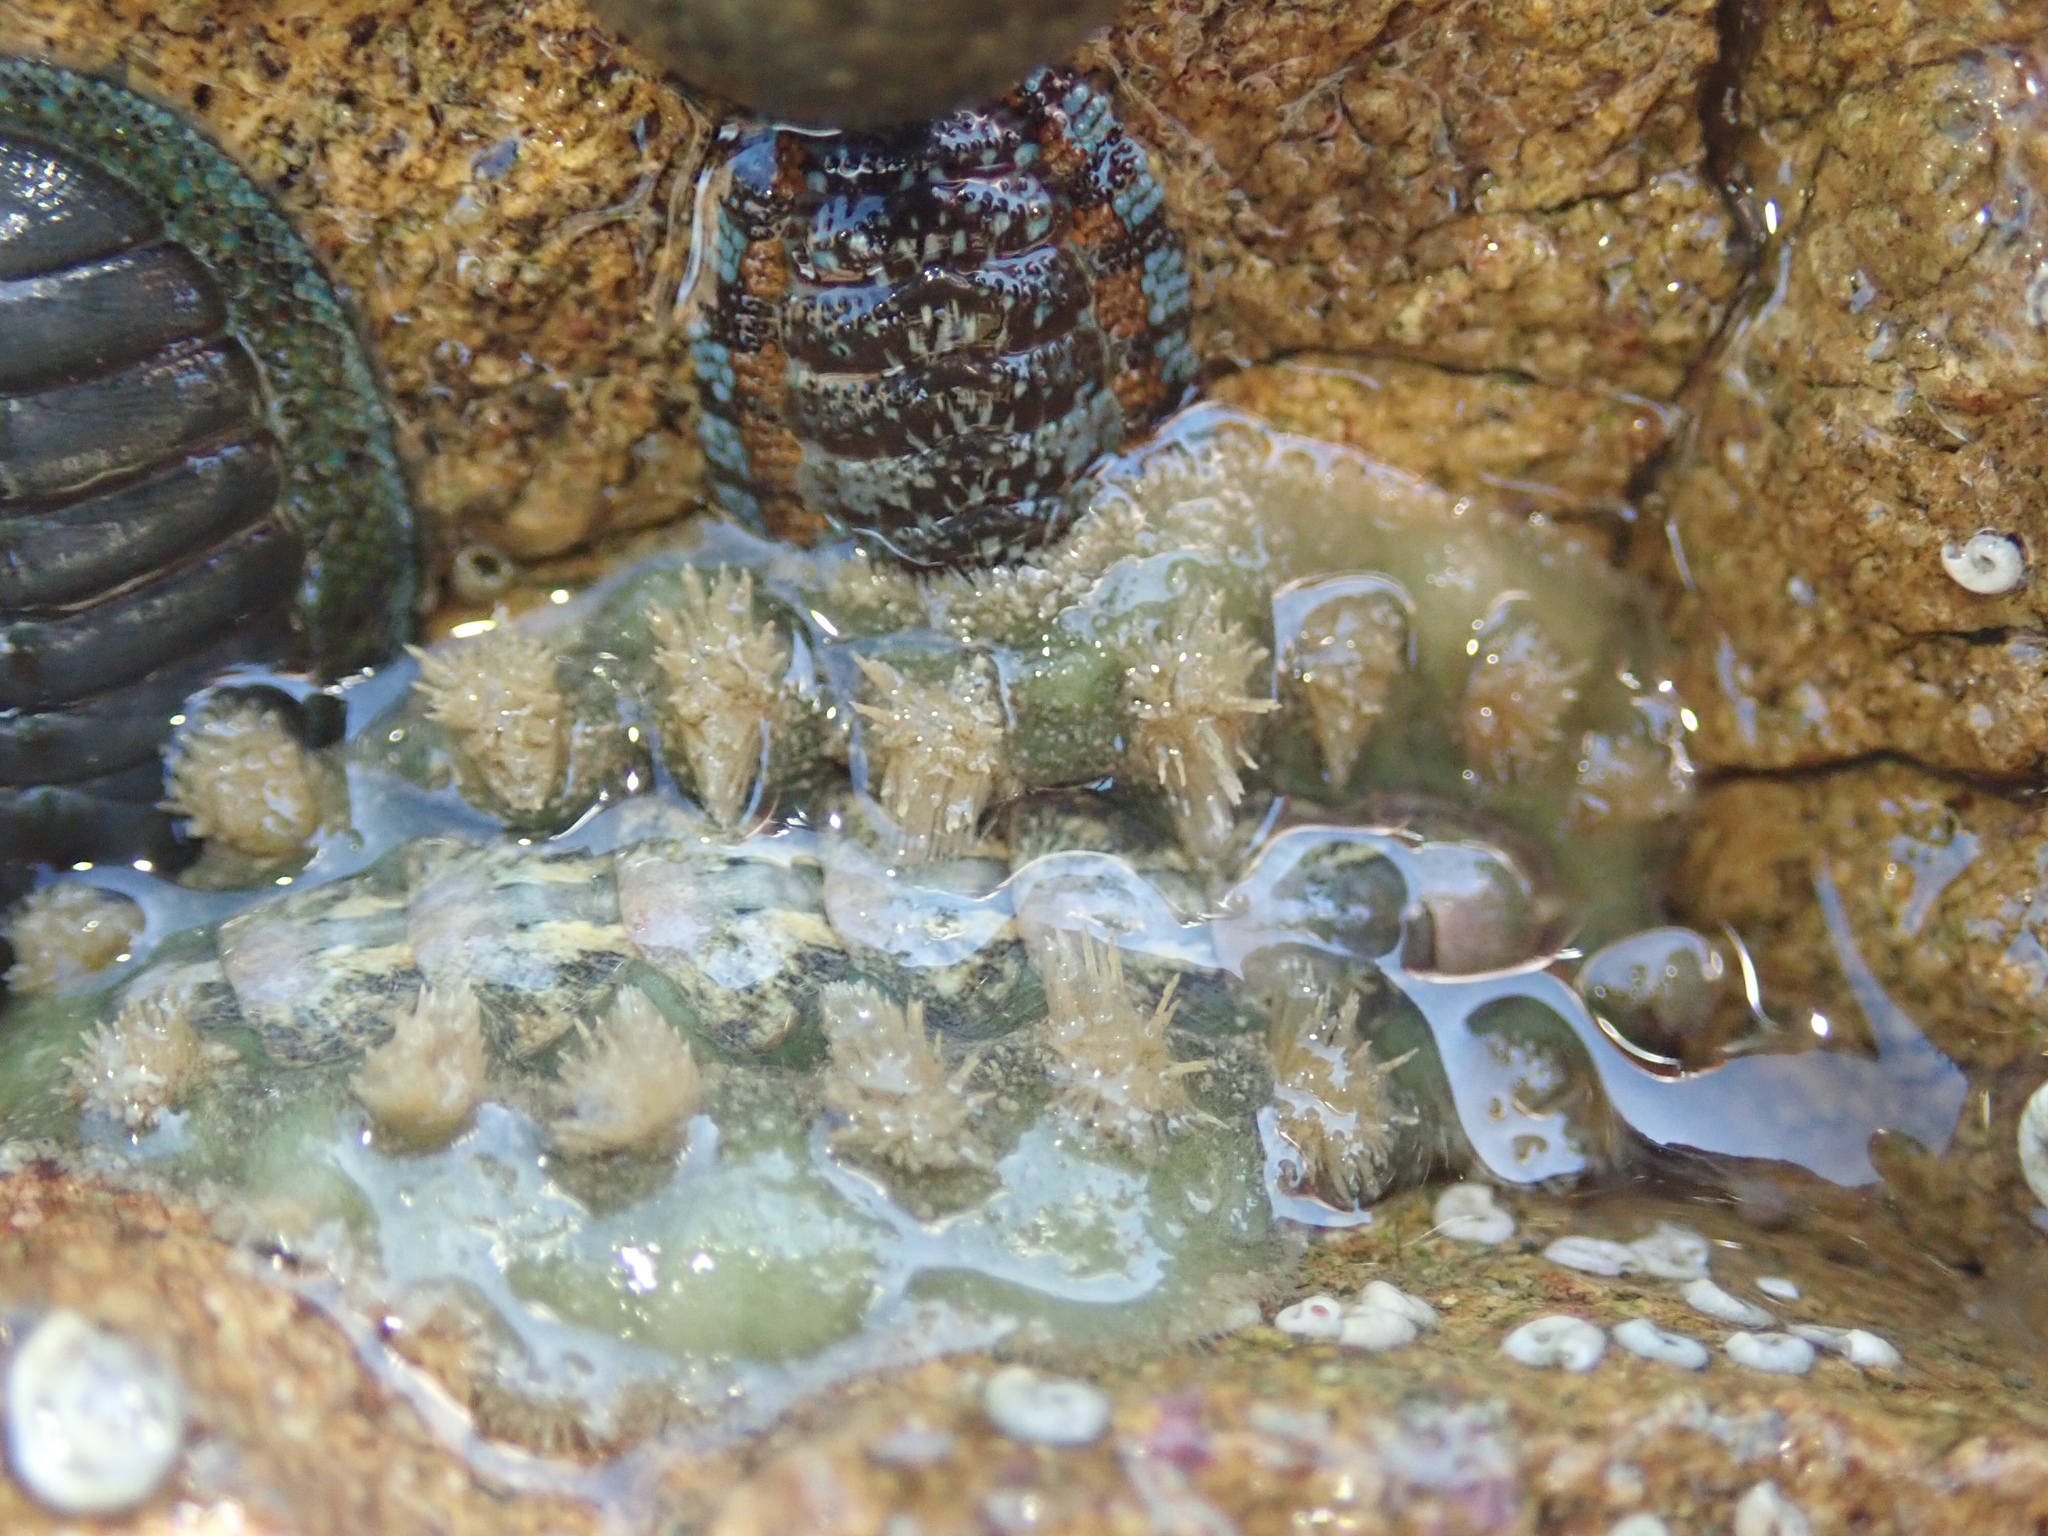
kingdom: Animalia
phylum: Mollusca
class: Polyplacophora
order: Chitonida
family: Acanthochitonidae
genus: Acanthochitona
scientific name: Acanthochitona zelandica
